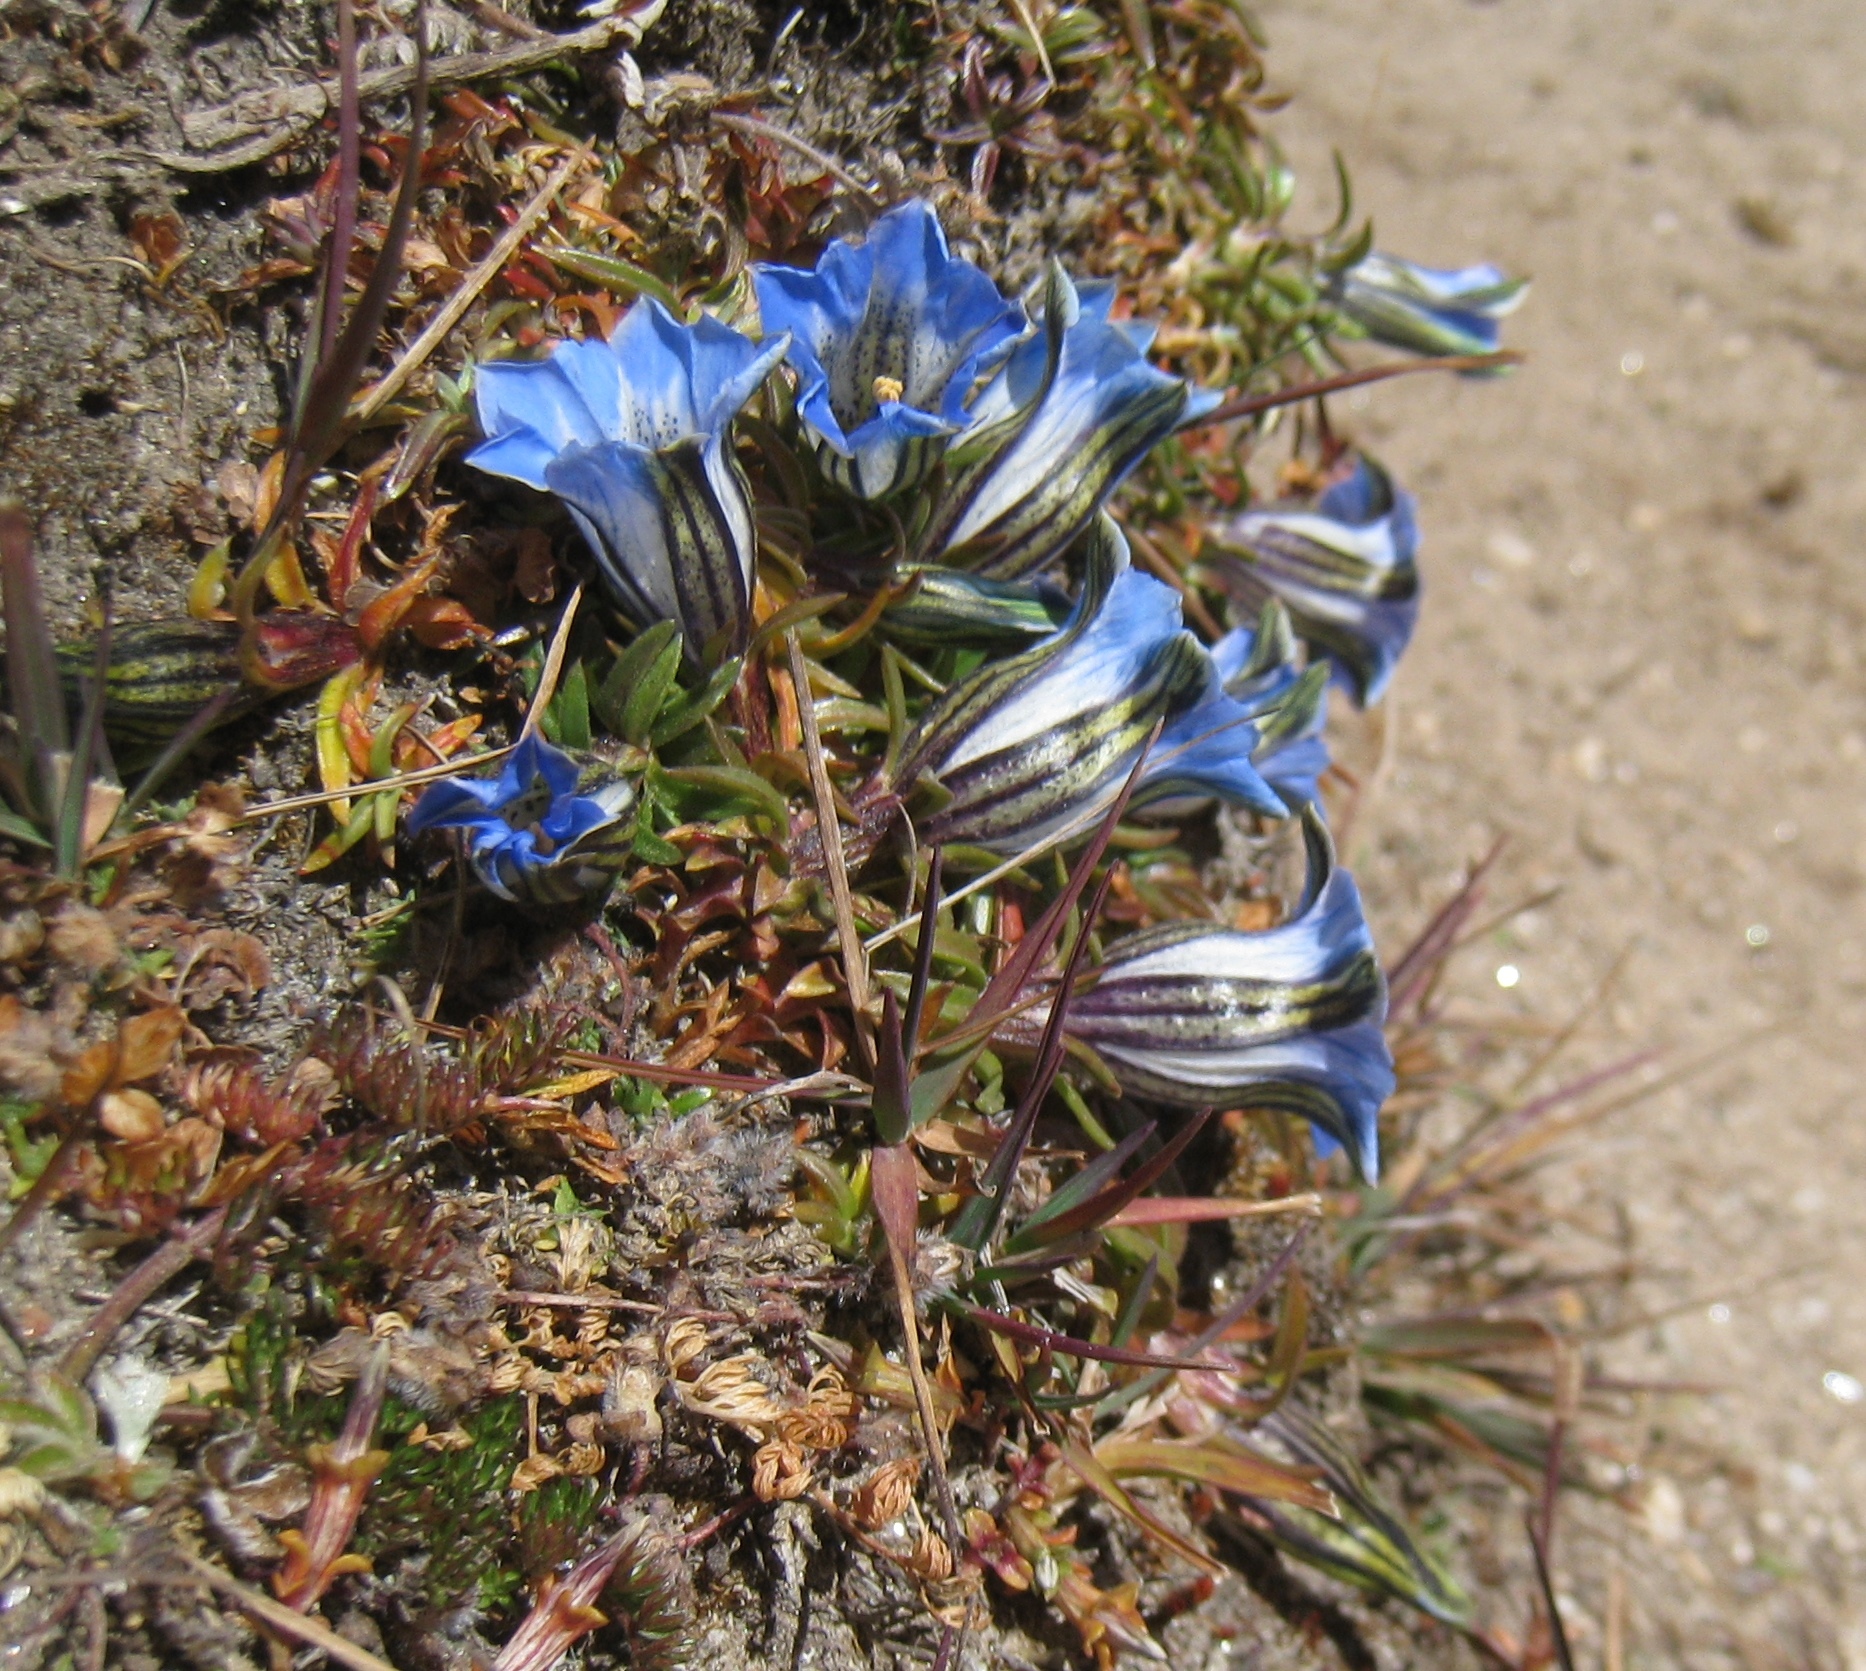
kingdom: Plantae
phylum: Tracheophyta
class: Magnoliopsida
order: Gentianales
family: Gentianaceae
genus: Gentiana
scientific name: Gentiana ornata
